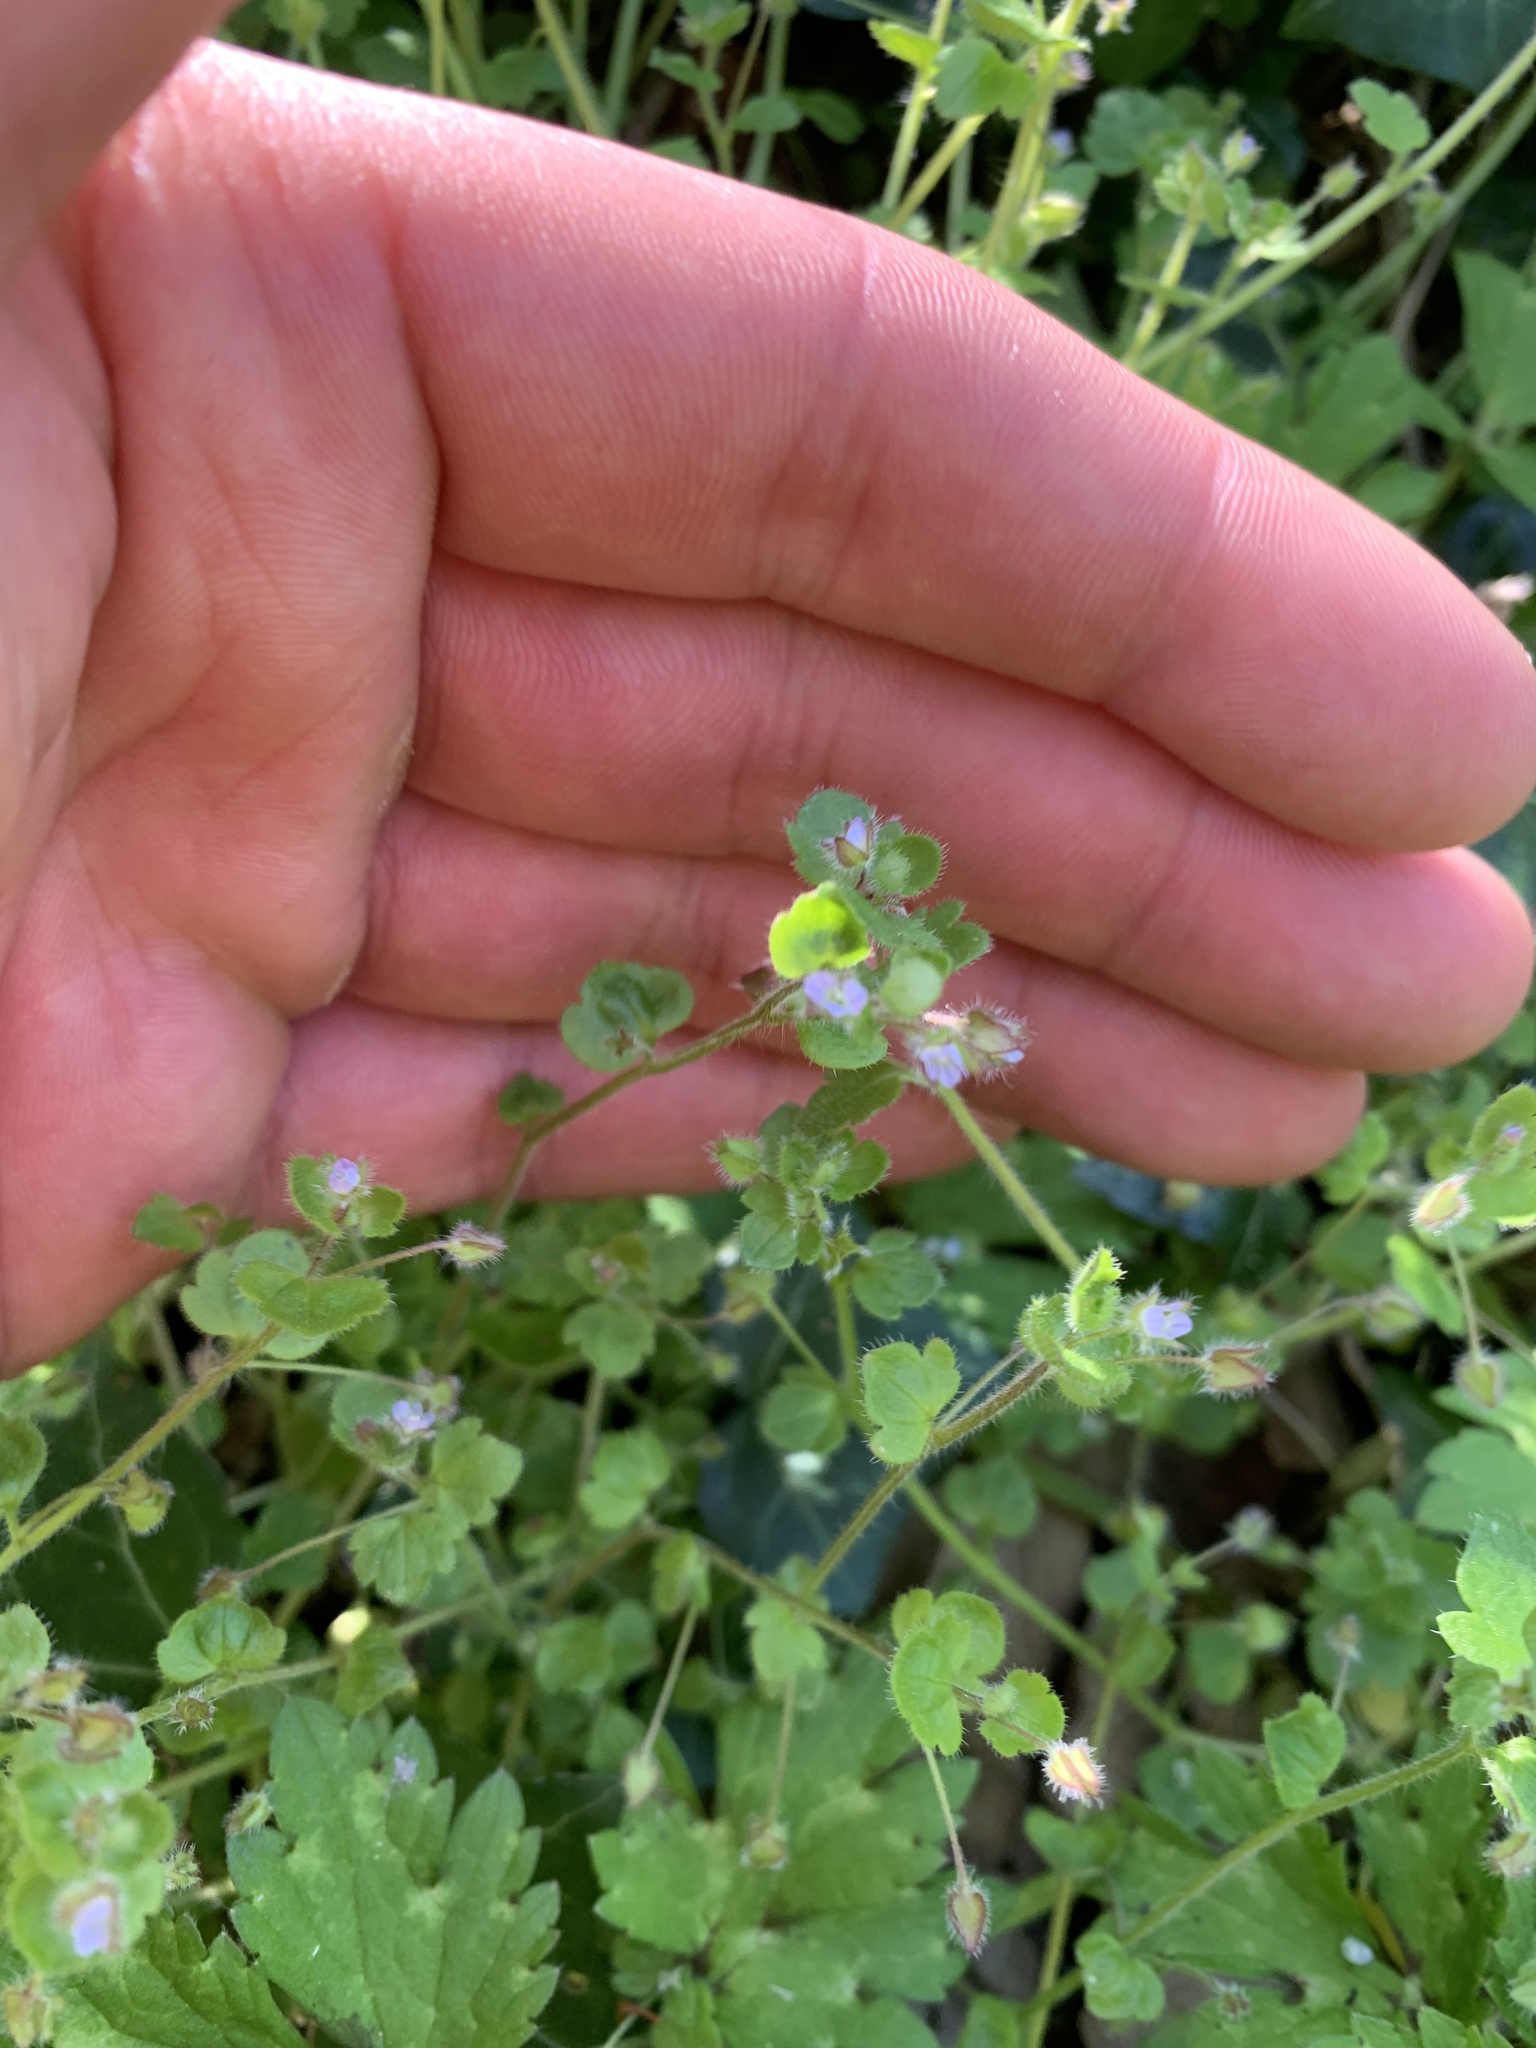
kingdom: Plantae
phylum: Tracheophyta
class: Magnoliopsida
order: Lamiales
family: Plantaginaceae
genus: Veronica
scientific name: Veronica sublobata
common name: False ivy-leaved speedwell
